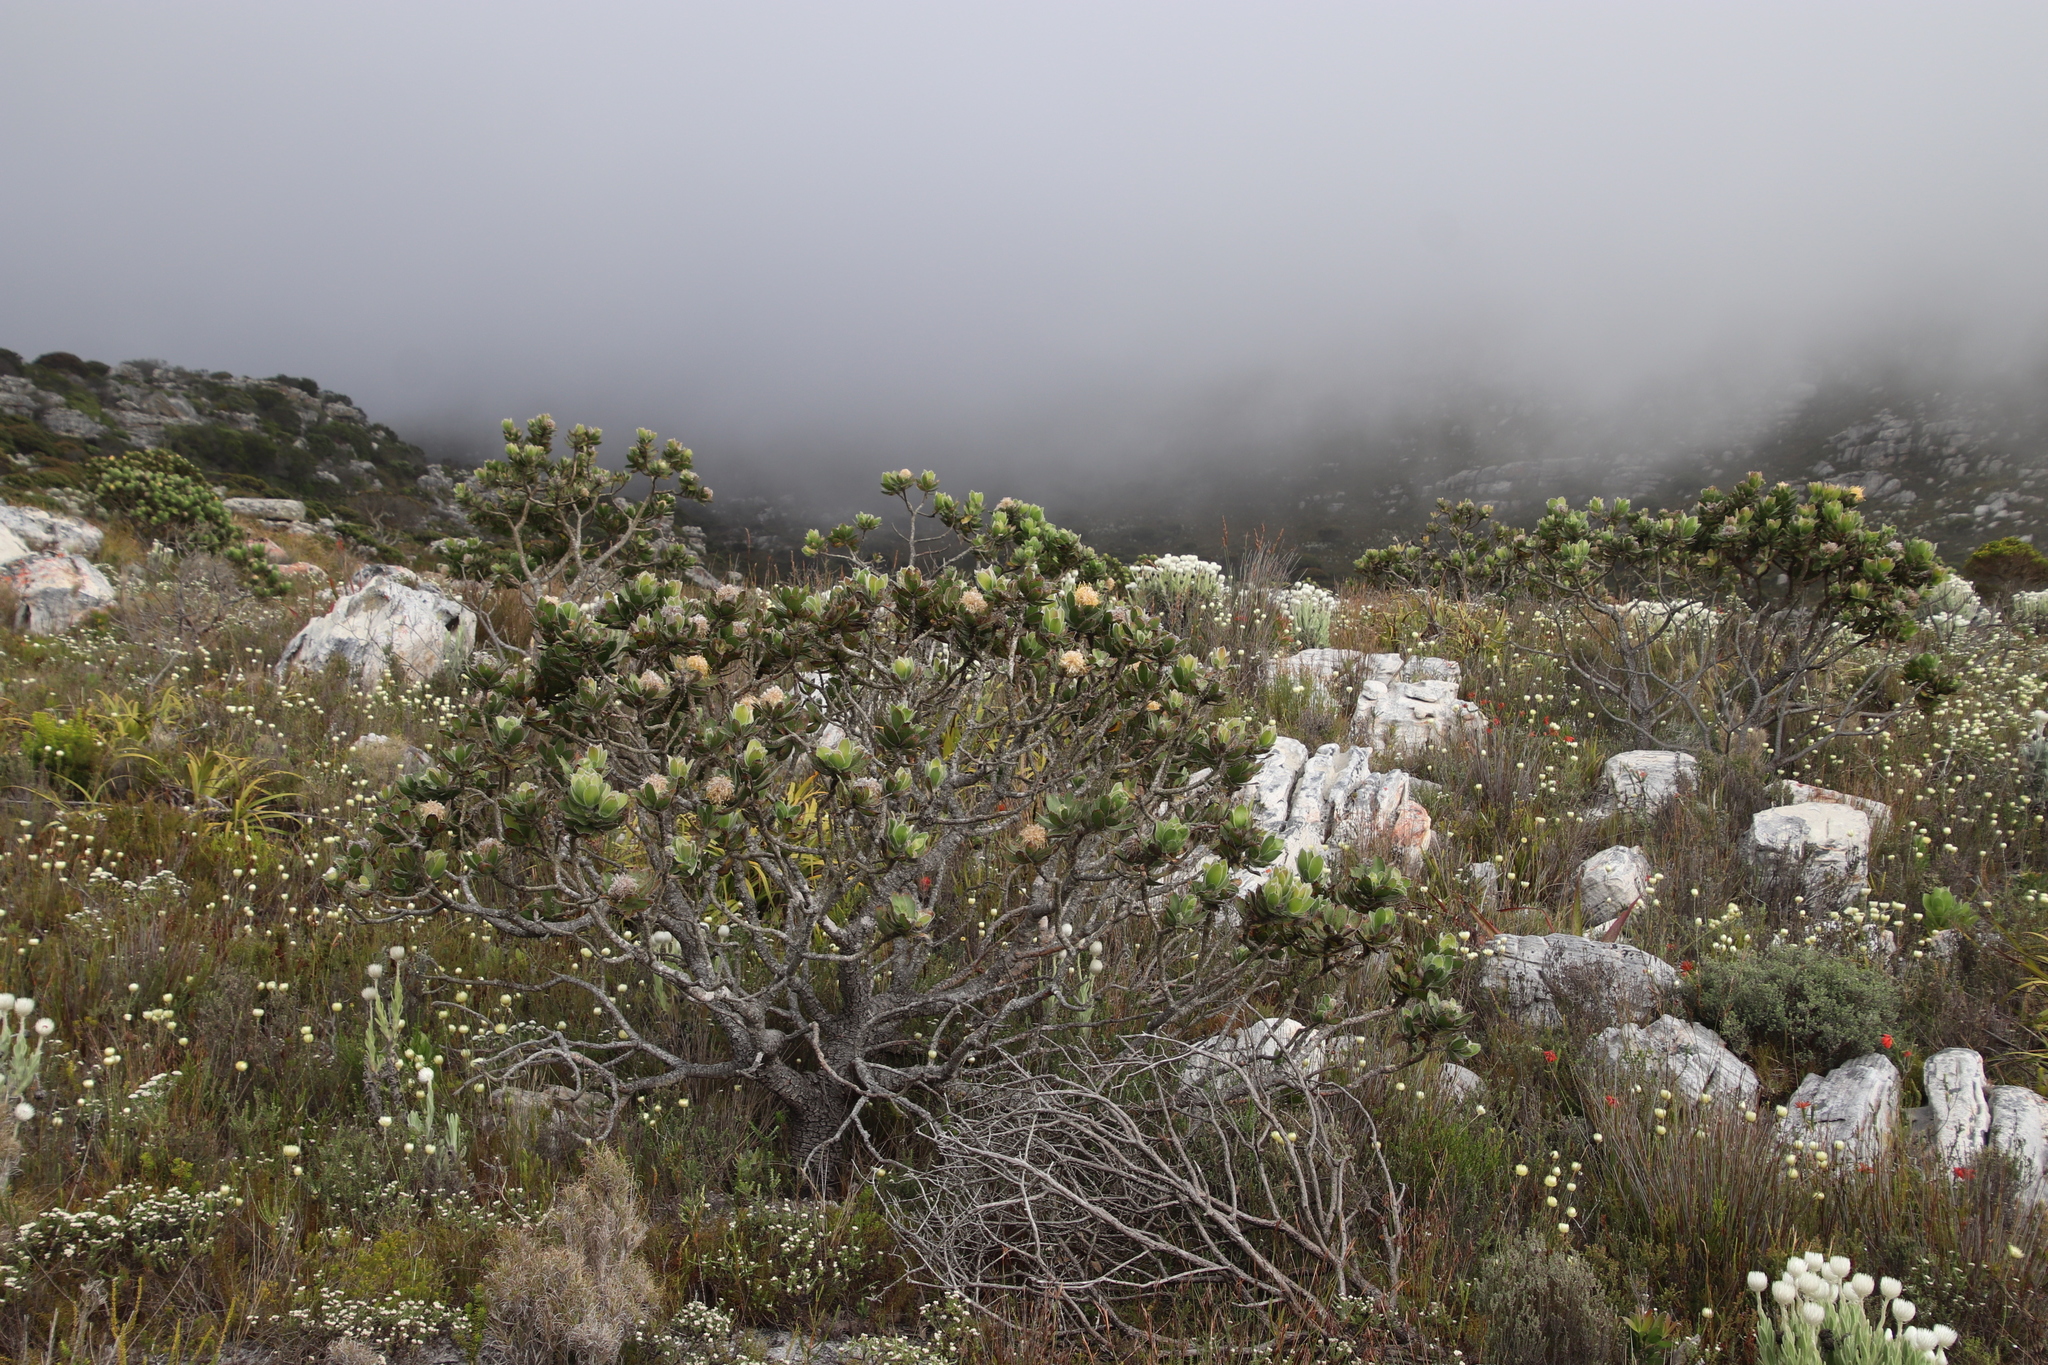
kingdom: Plantae
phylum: Tracheophyta
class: Magnoliopsida
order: Proteales
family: Proteaceae
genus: Leucospermum
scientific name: Leucospermum conocarpodendron
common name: Tree pincushion
